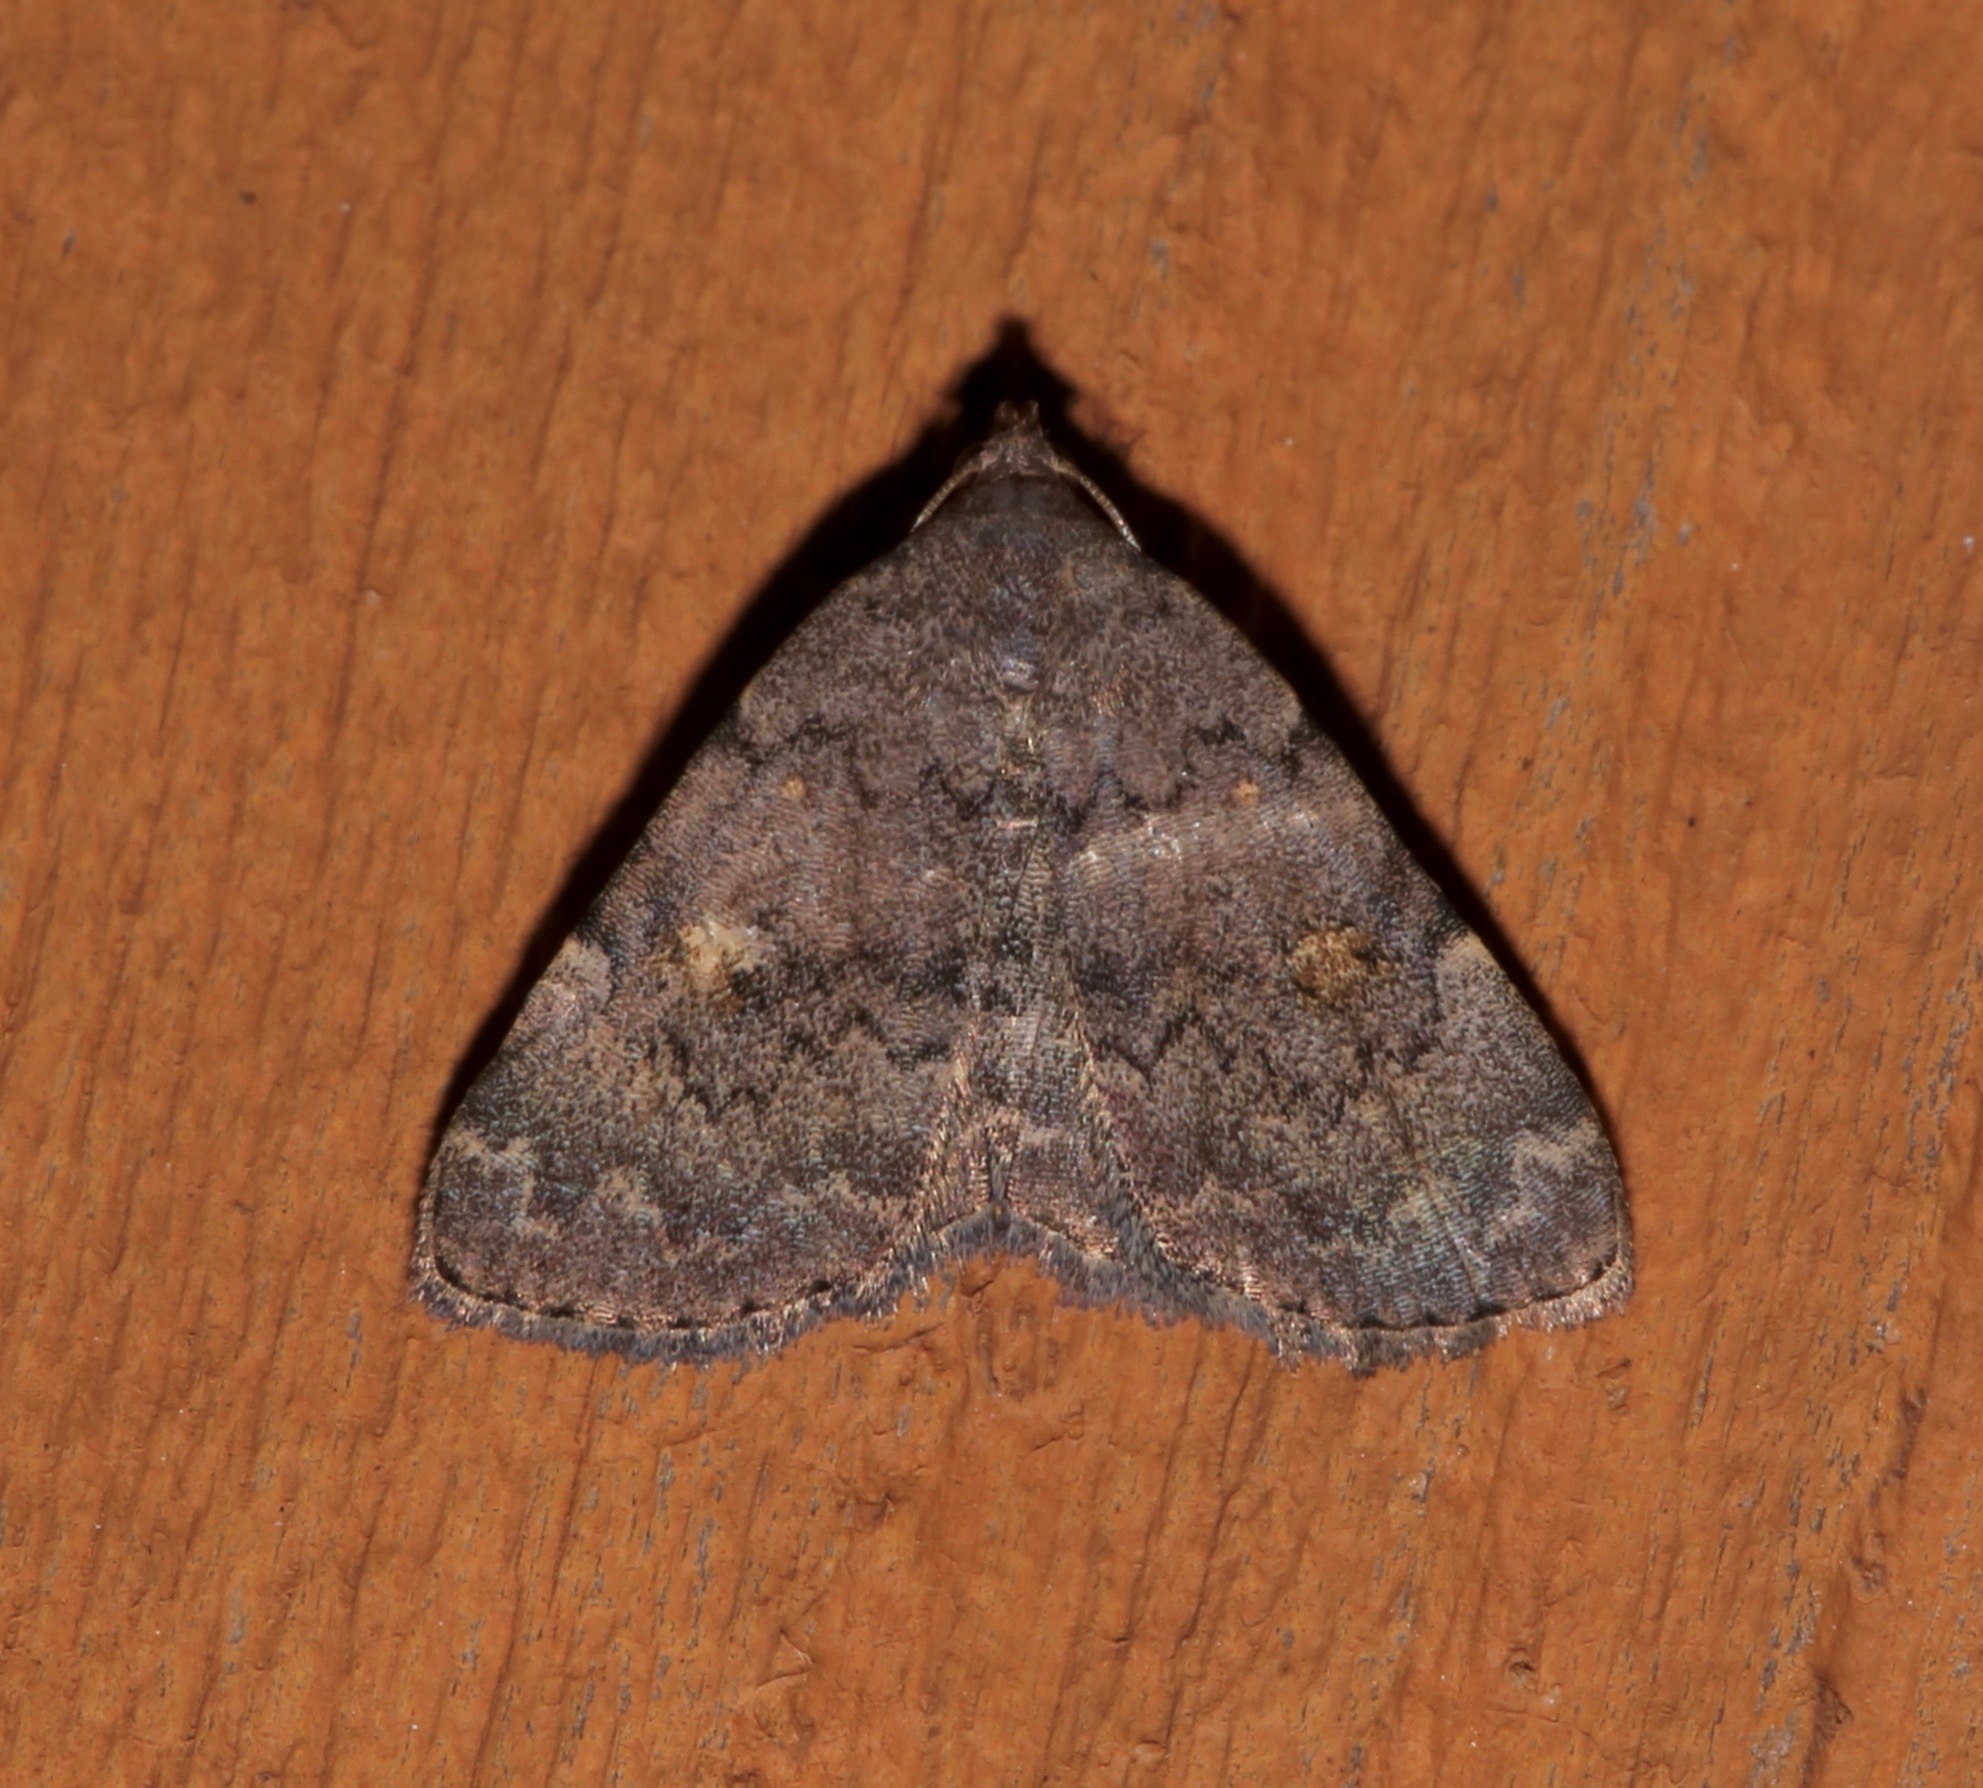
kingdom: Animalia
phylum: Arthropoda
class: Insecta
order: Lepidoptera
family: Erebidae
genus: Idia
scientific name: Idia aemula
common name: Common idia moth
